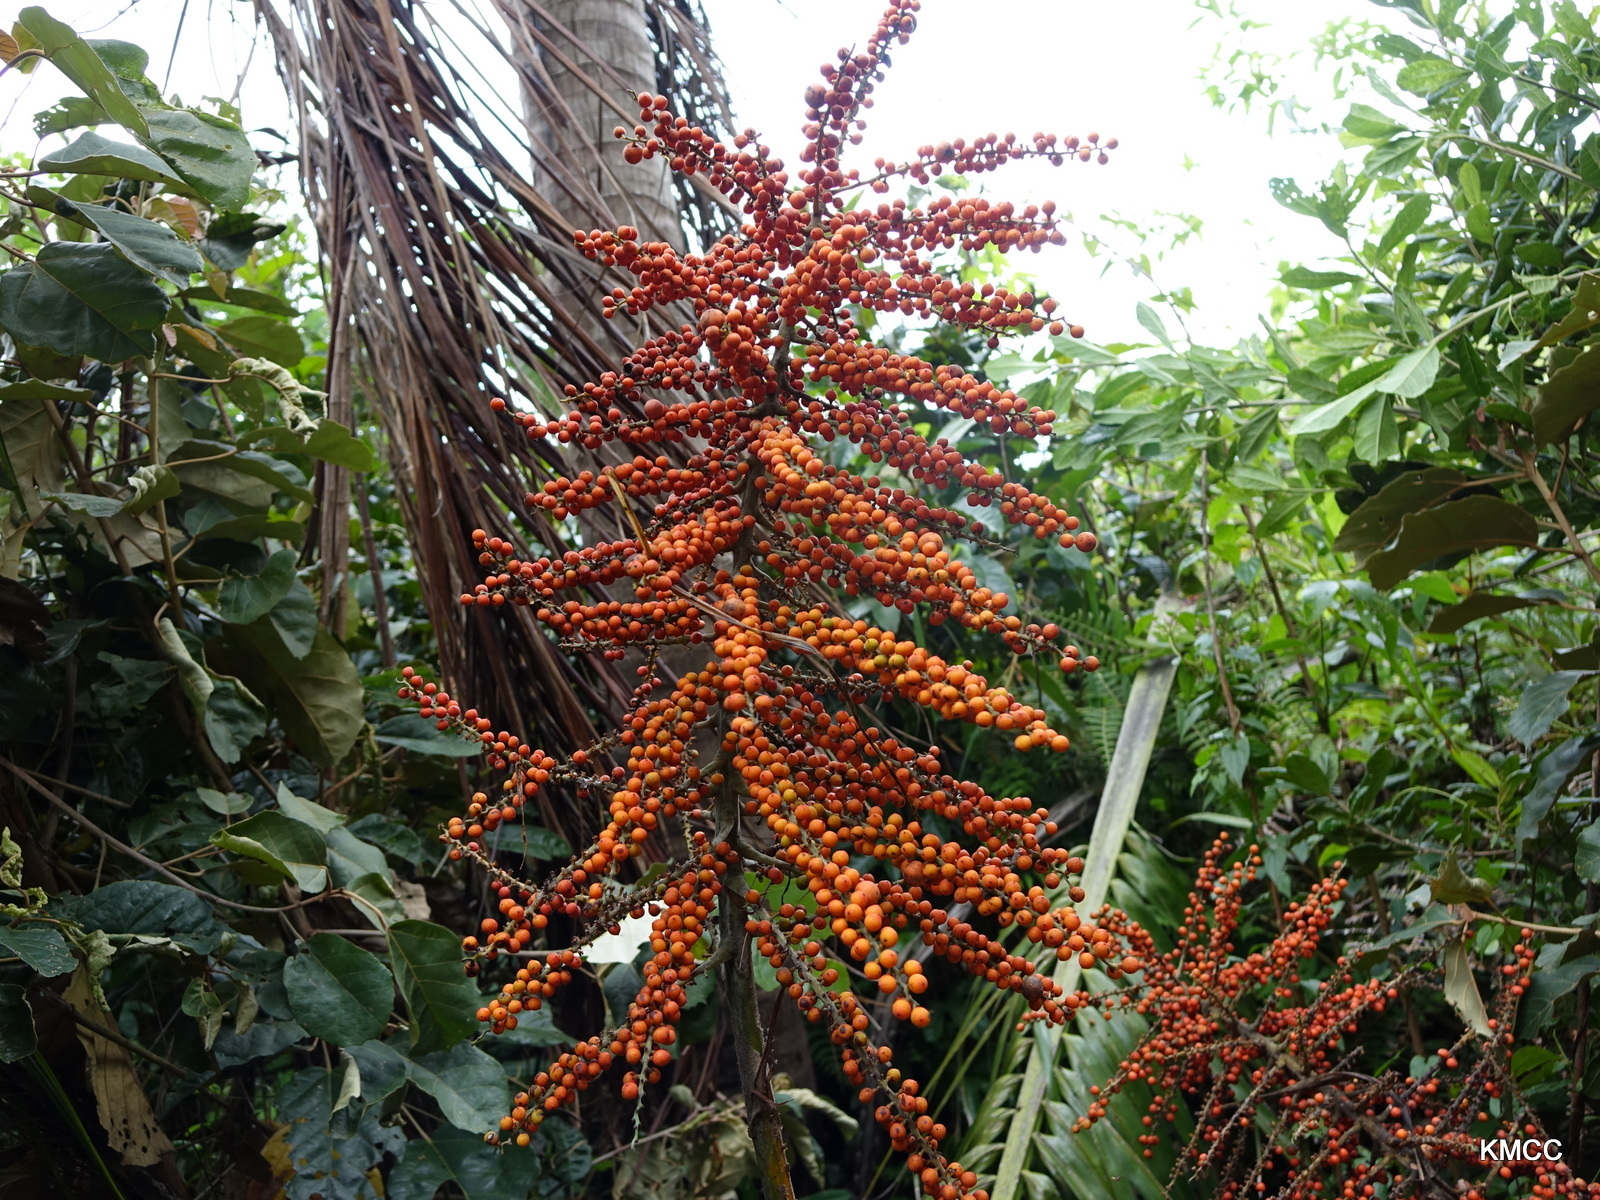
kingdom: Plantae
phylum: Tracheophyta
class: Liliopsida
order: Arecales
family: Arecaceae
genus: Ravenea
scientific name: Ravenea madagascariensis
